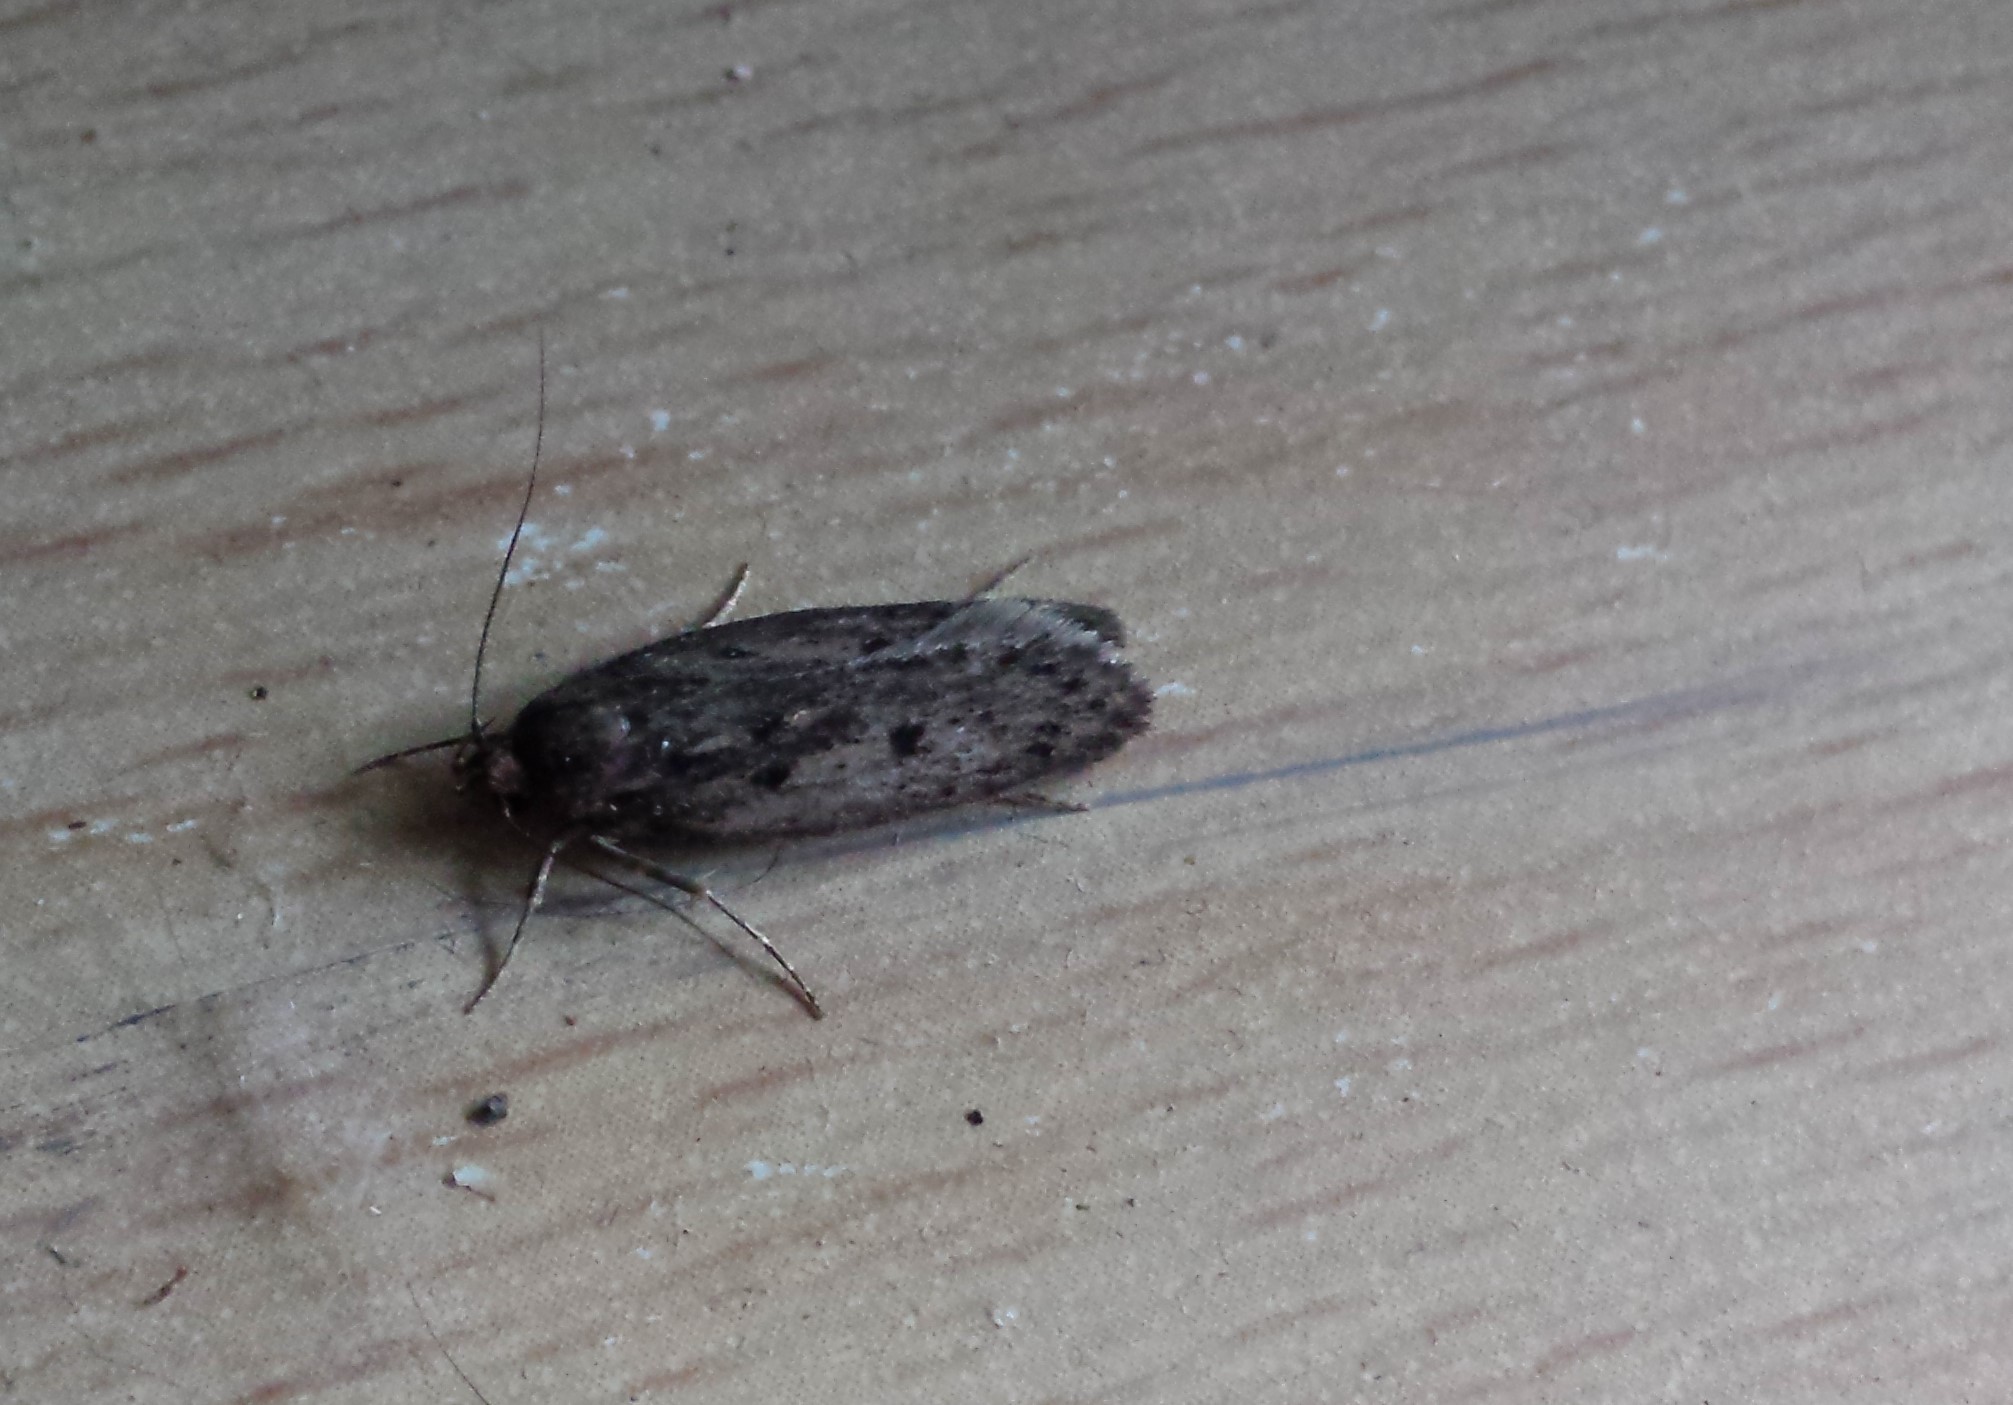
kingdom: Animalia
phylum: Arthropoda
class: Insecta
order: Lepidoptera
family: Oecophoridae
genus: Hofmannophila
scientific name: Hofmannophila pseudospretella
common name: Brown house moth
